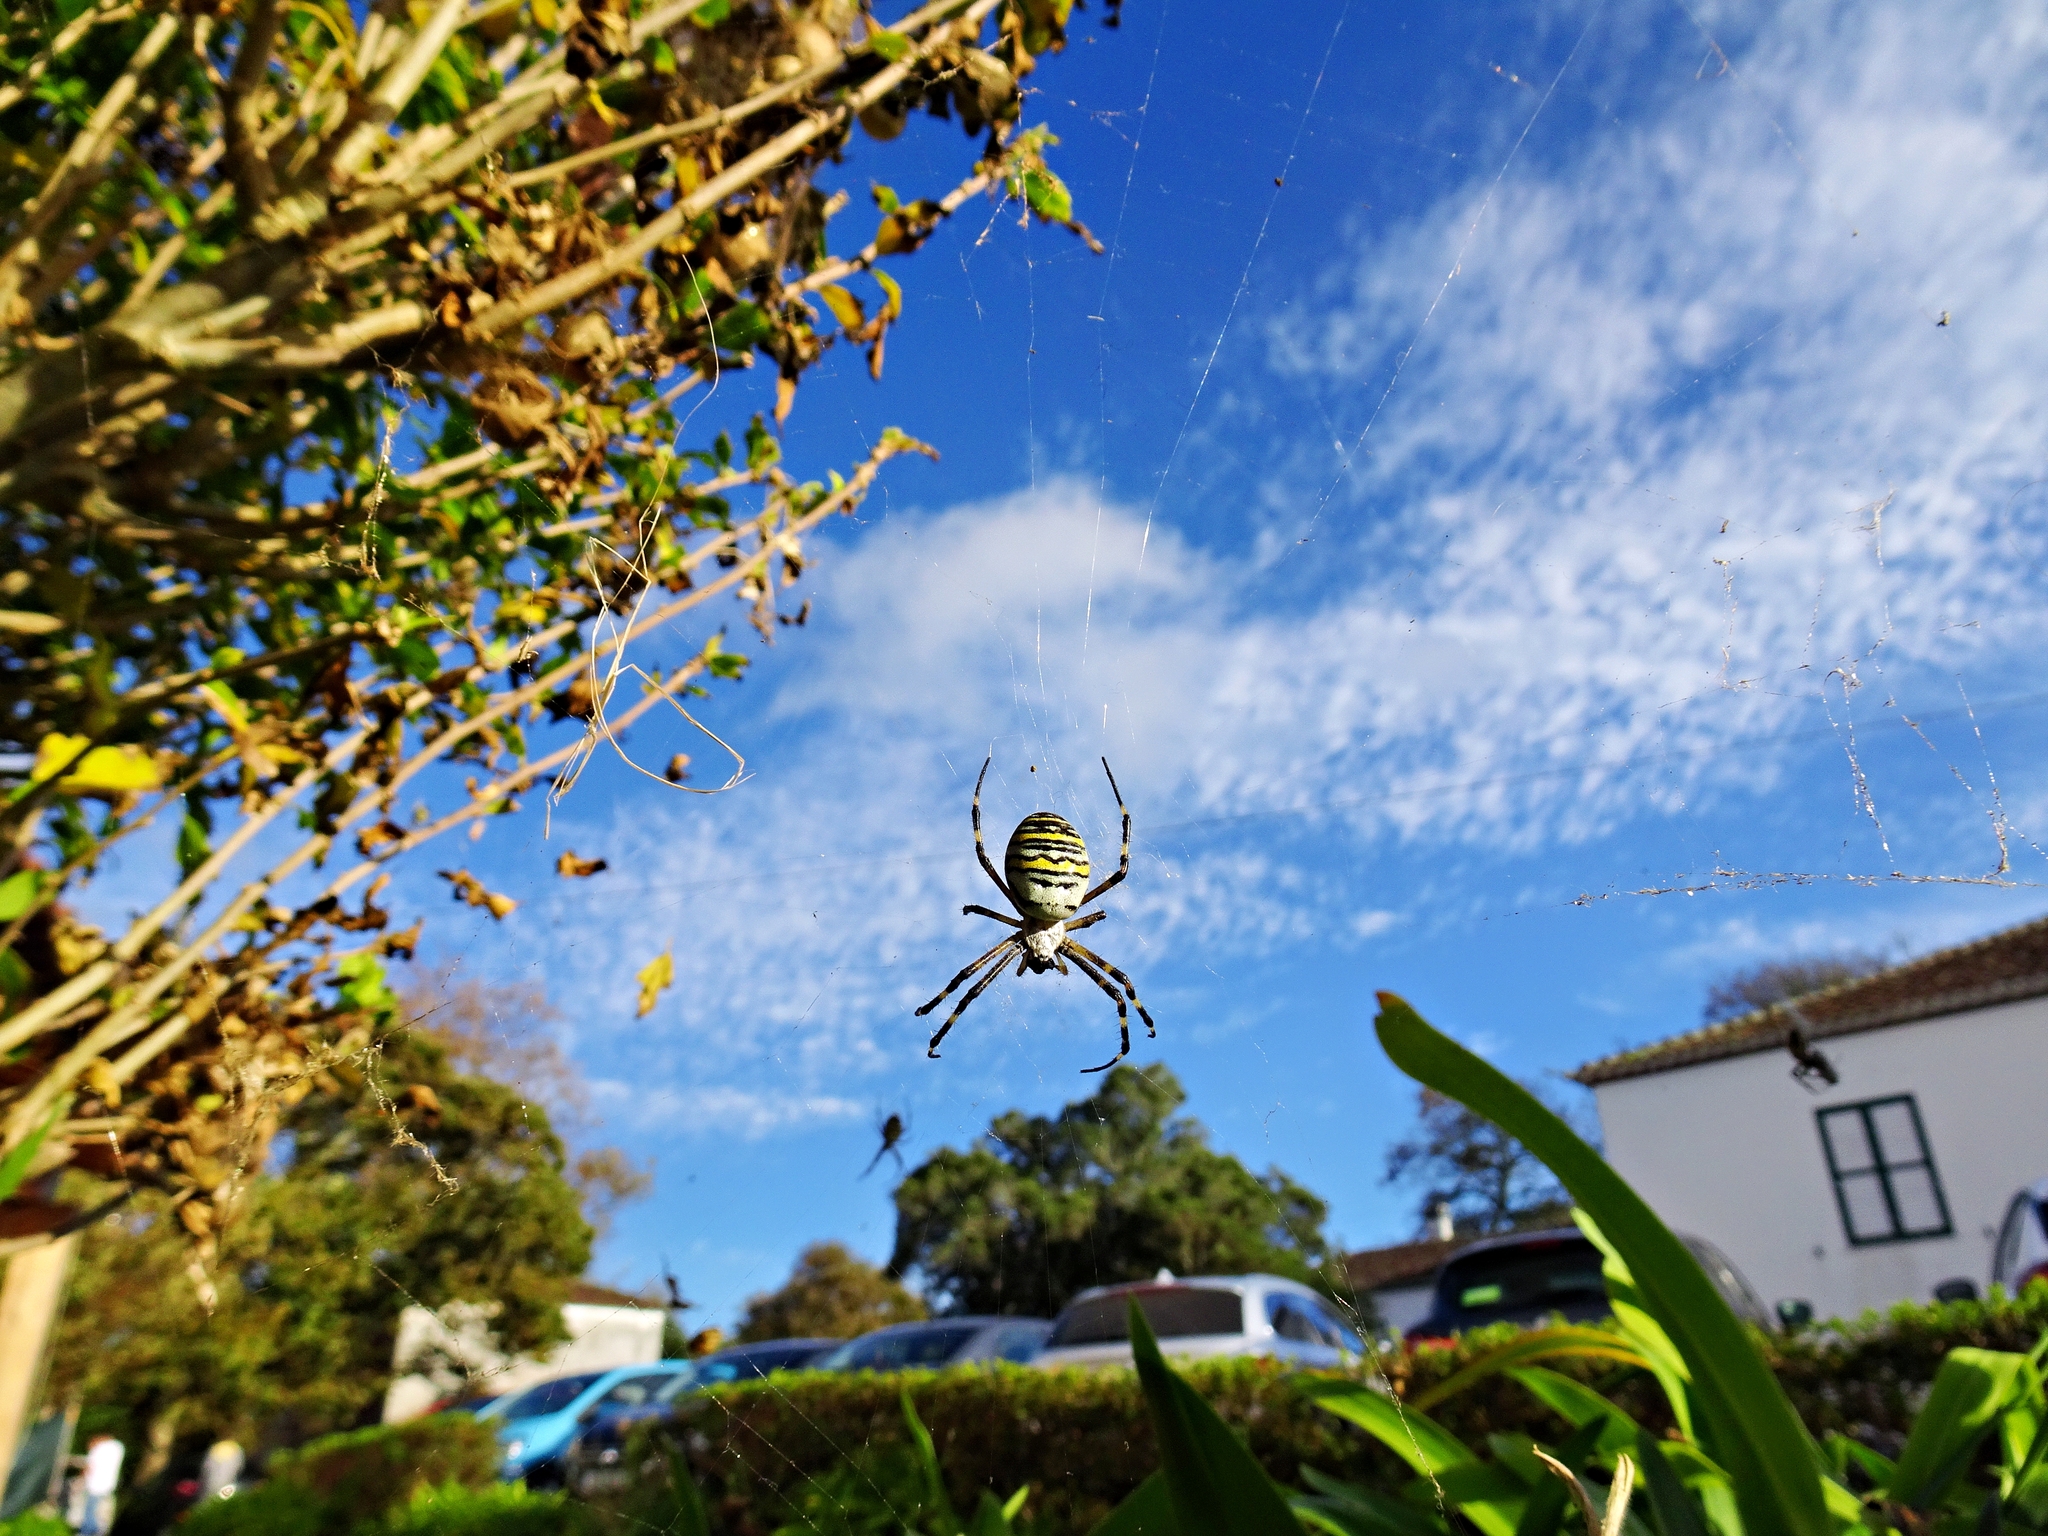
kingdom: Animalia
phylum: Arthropoda
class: Arachnida
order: Araneae
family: Araneidae
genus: Argiope
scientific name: Argiope bruennichi
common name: Wasp spider
